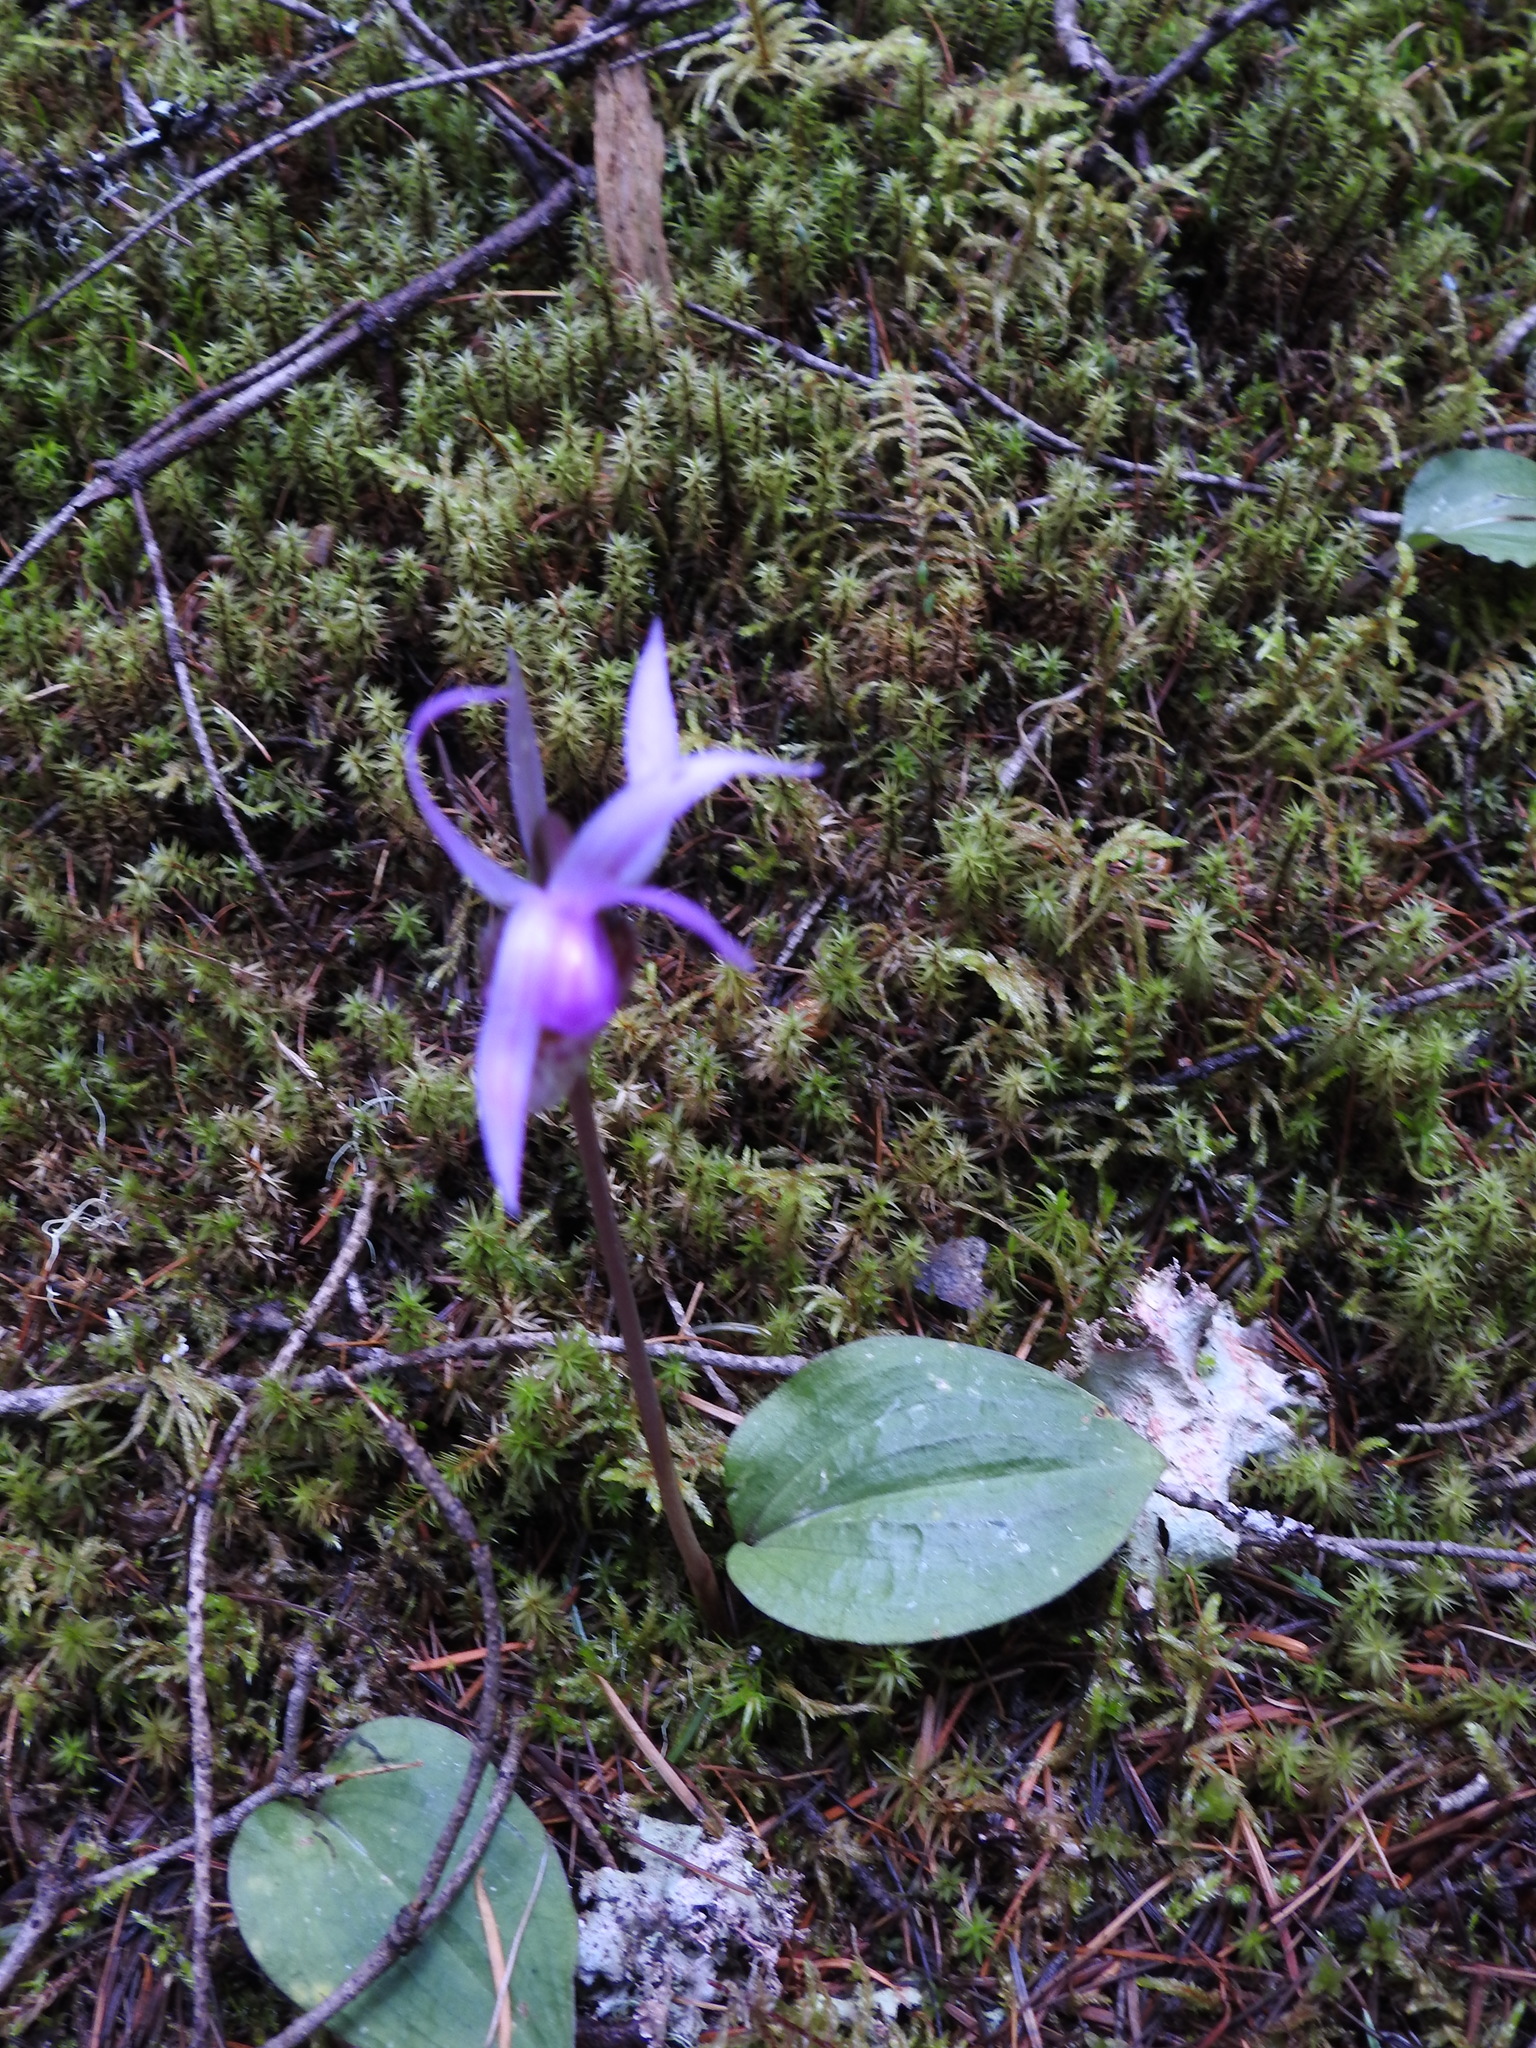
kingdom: Plantae
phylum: Tracheophyta
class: Liliopsida
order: Asparagales
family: Orchidaceae
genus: Calypso
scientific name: Calypso bulbosa
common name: Calypso
